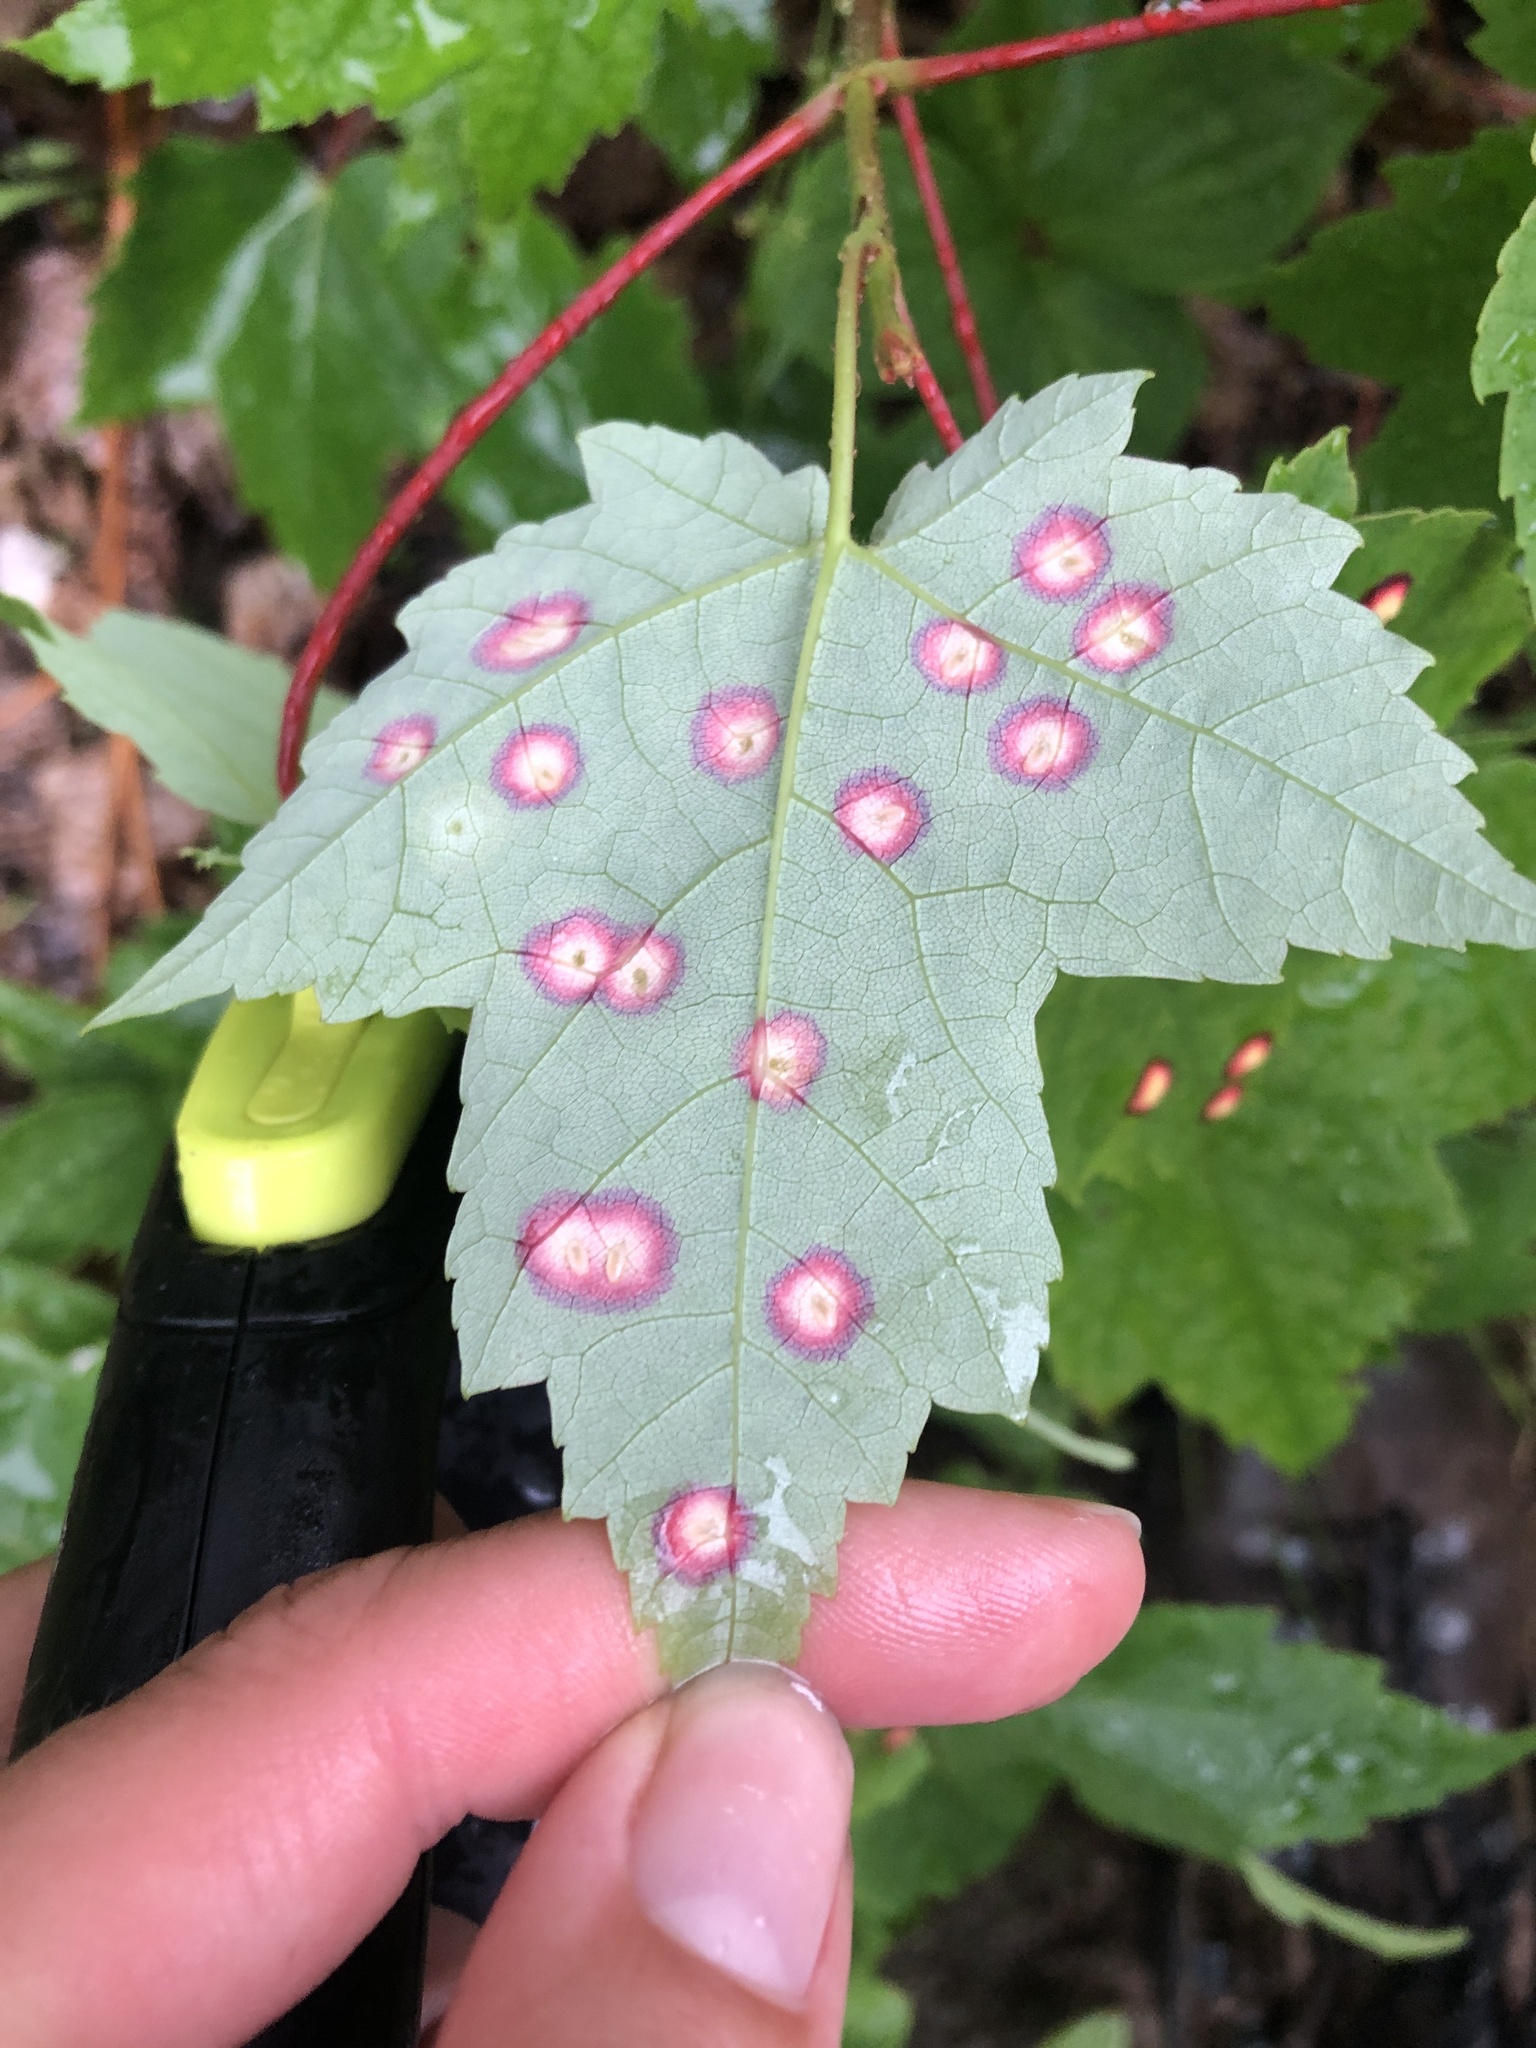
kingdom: Animalia
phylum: Arthropoda
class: Insecta
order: Diptera
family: Cecidomyiidae
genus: Acericecis
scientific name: Acericecis ocellaris
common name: Ocellate gall midge
